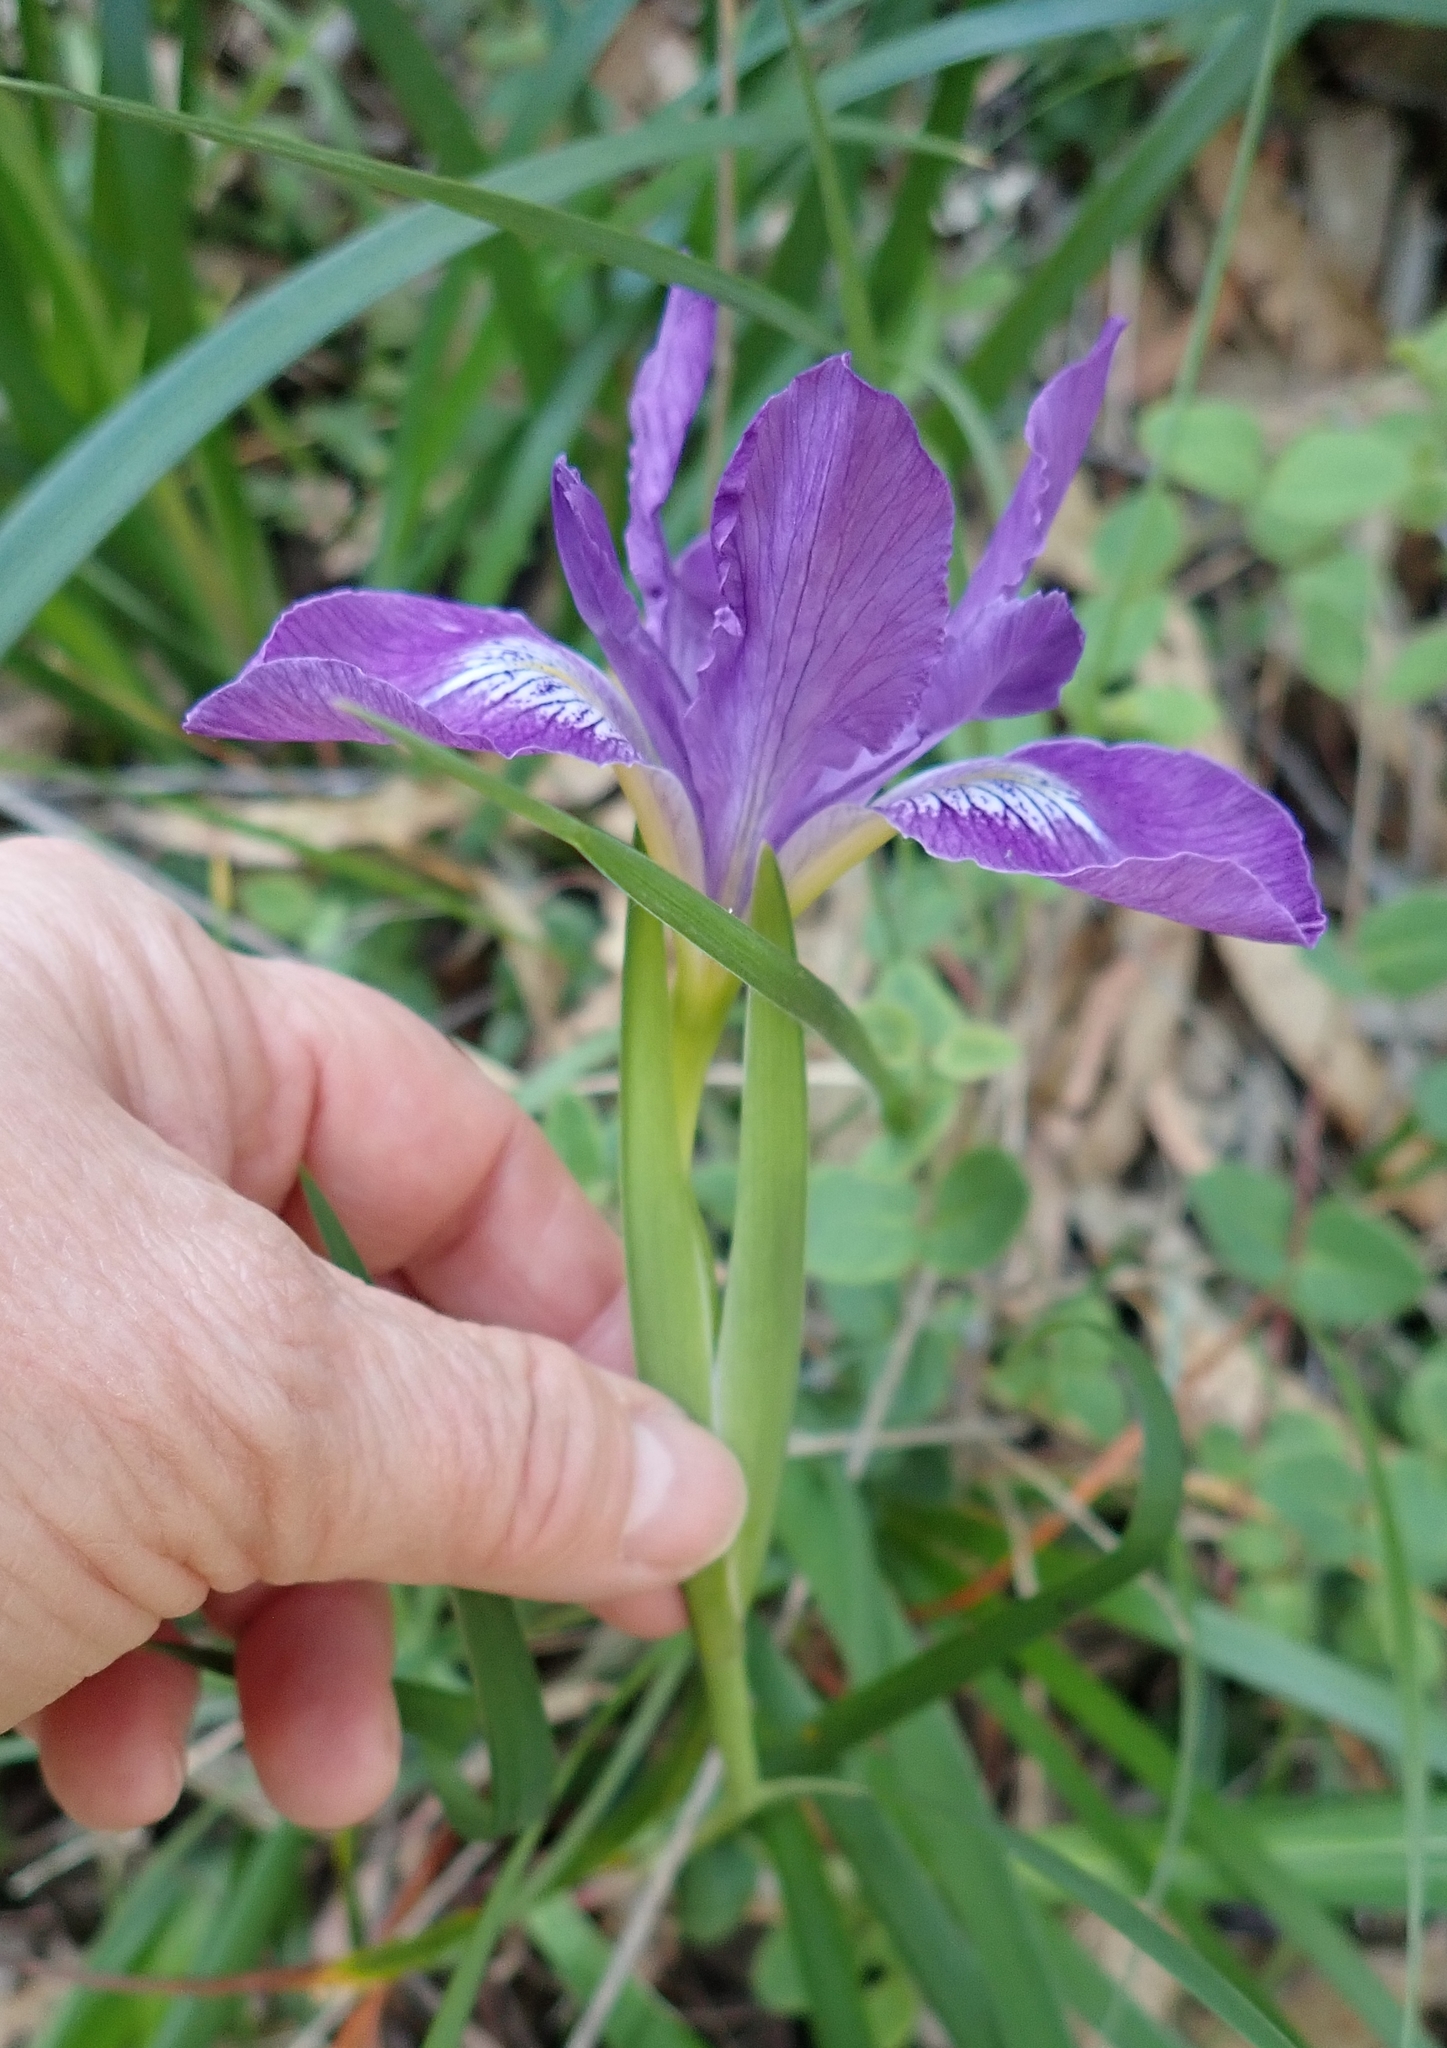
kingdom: Plantae
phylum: Tracheophyta
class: Liliopsida
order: Asparagales
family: Iridaceae
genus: Iris
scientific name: Iris douglasiana
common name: Marin iris
